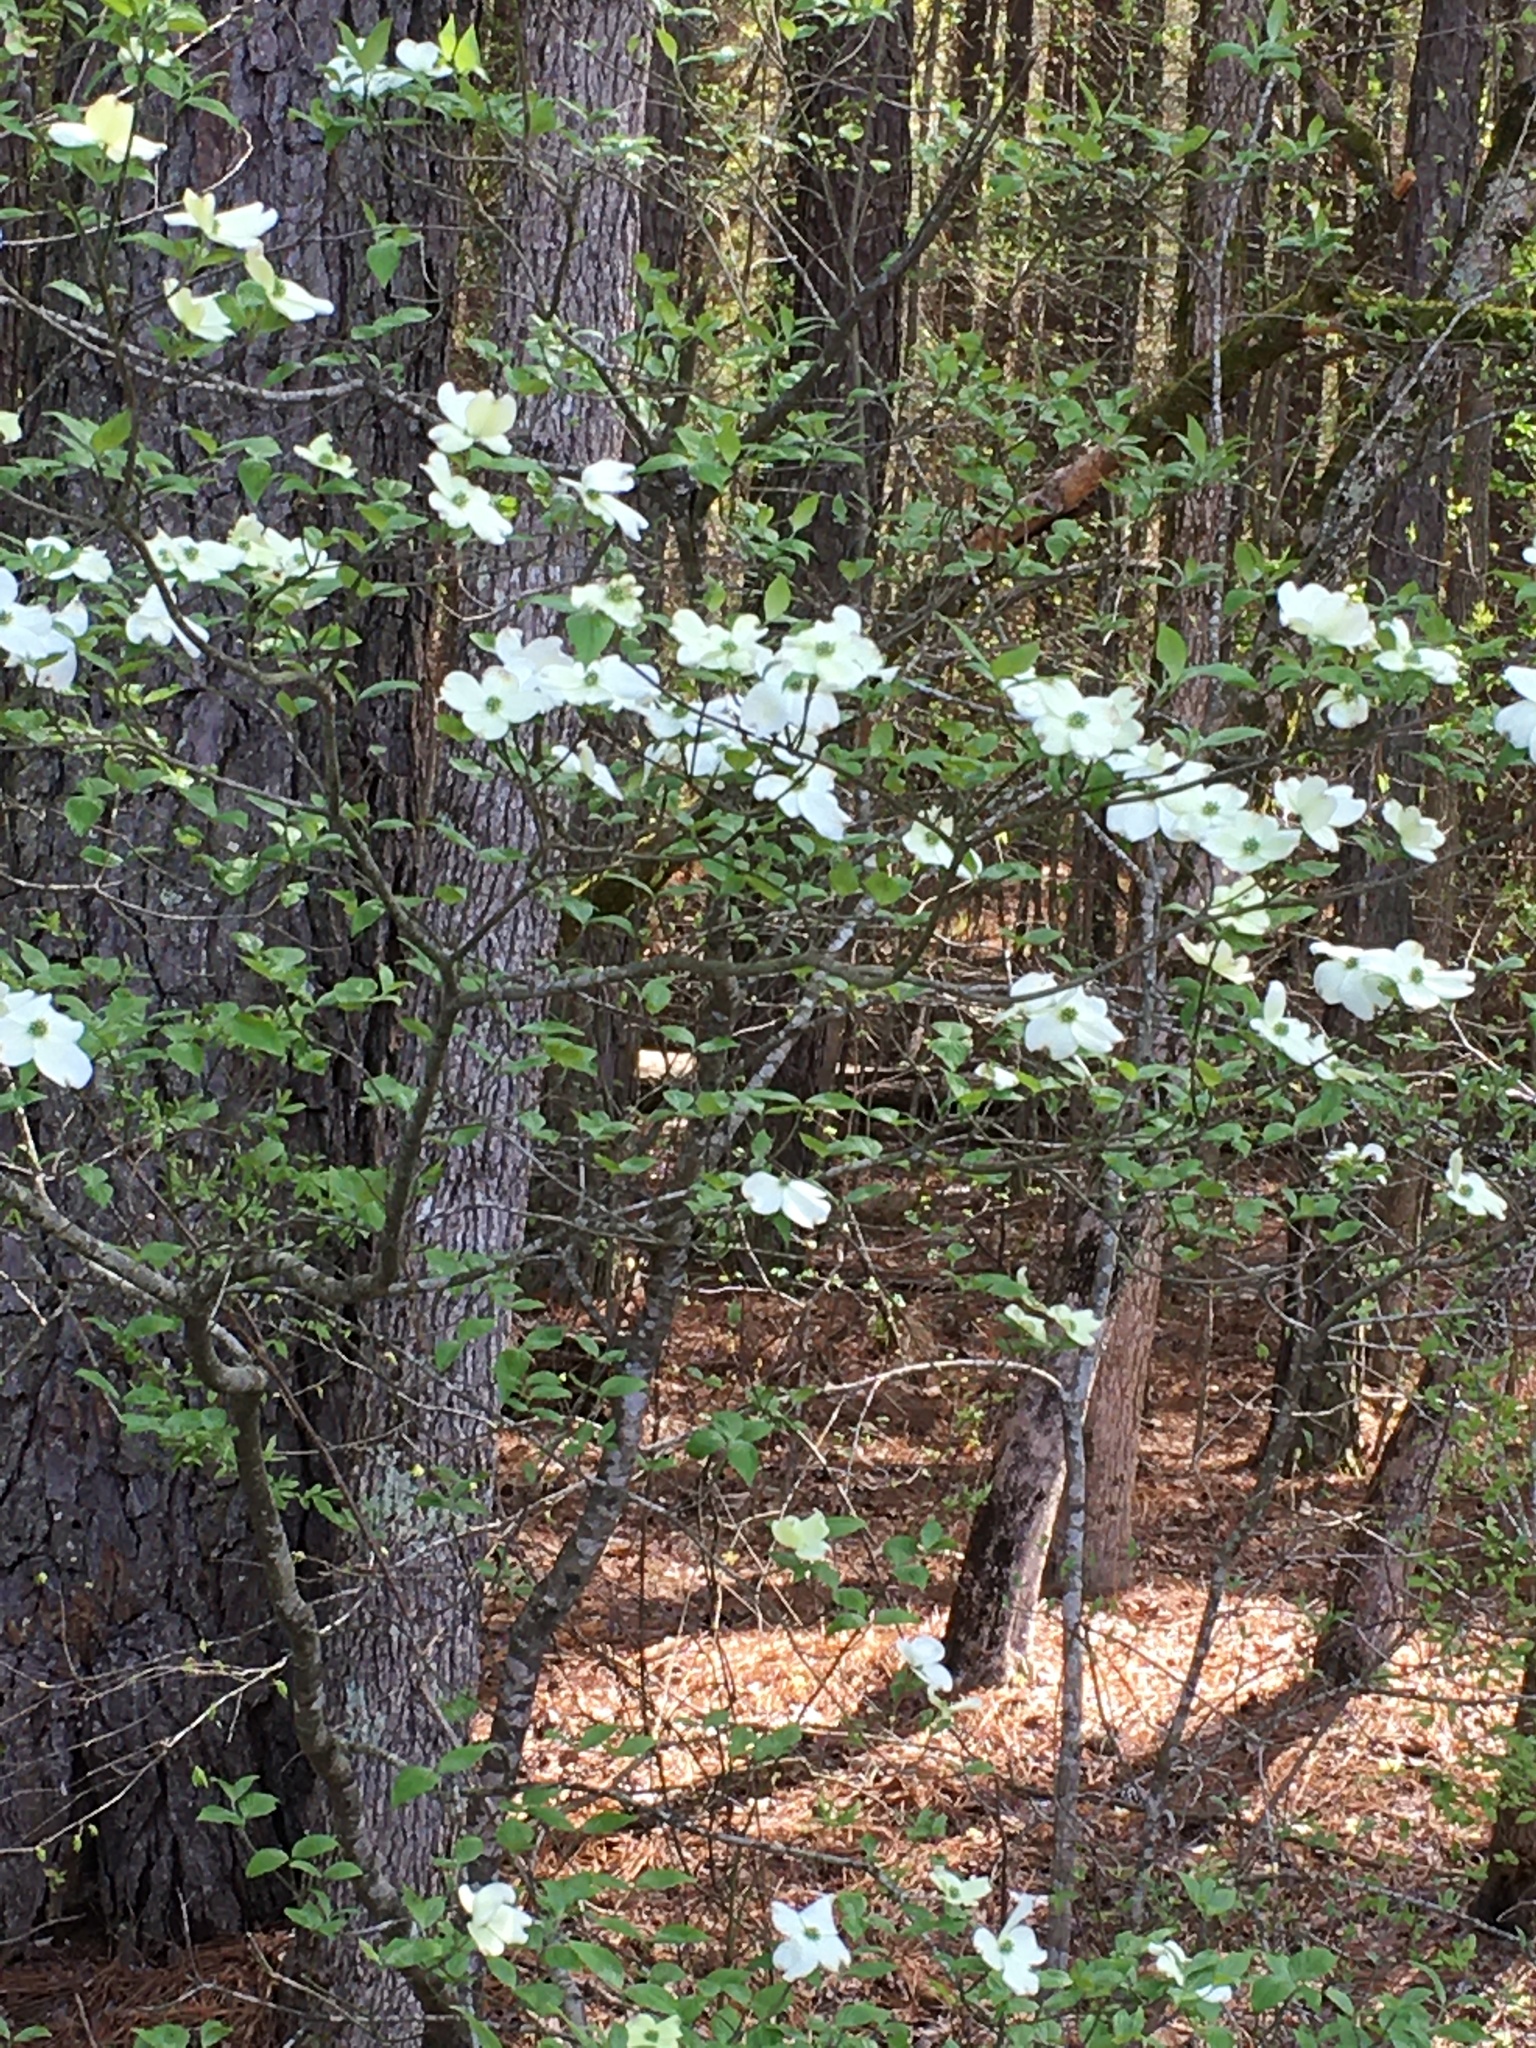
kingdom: Plantae
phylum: Tracheophyta
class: Magnoliopsida
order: Cornales
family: Cornaceae
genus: Cornus
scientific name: Cornus florida
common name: Flowering dogwood
